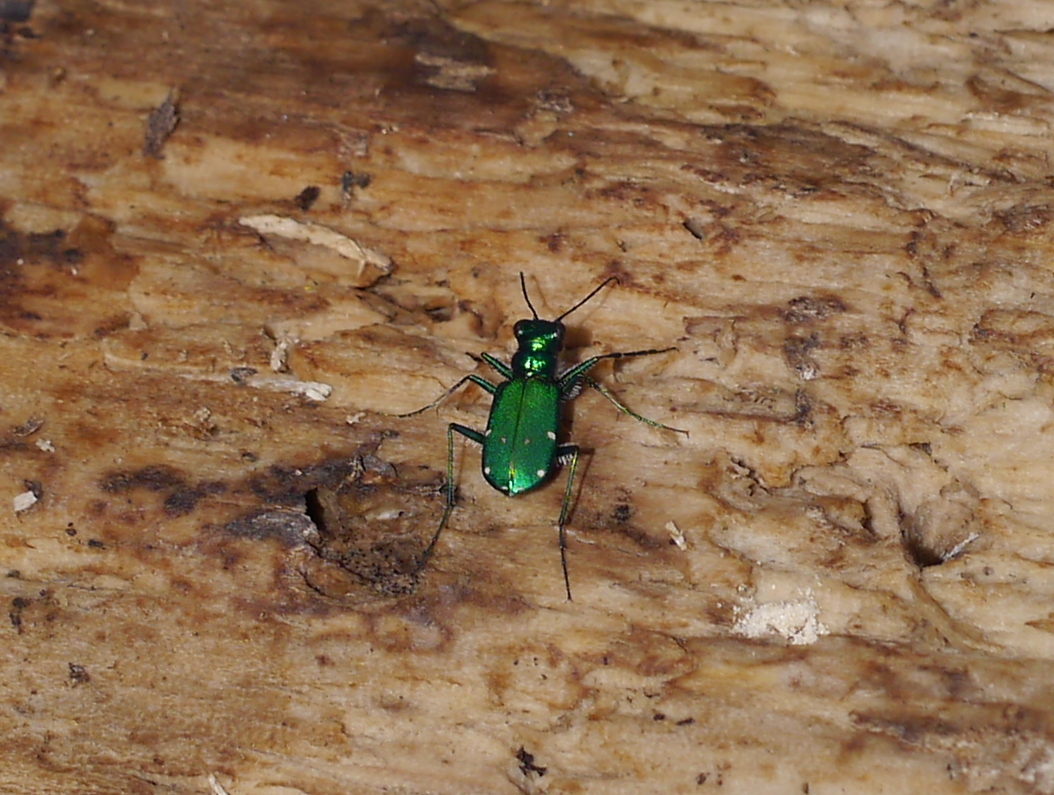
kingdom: Animalia
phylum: Arthropoda
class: Insecta
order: Coleoptera
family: Carabidae
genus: Cicindela
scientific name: Cicindela sexguttata
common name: Six-spotted tiger beetle
